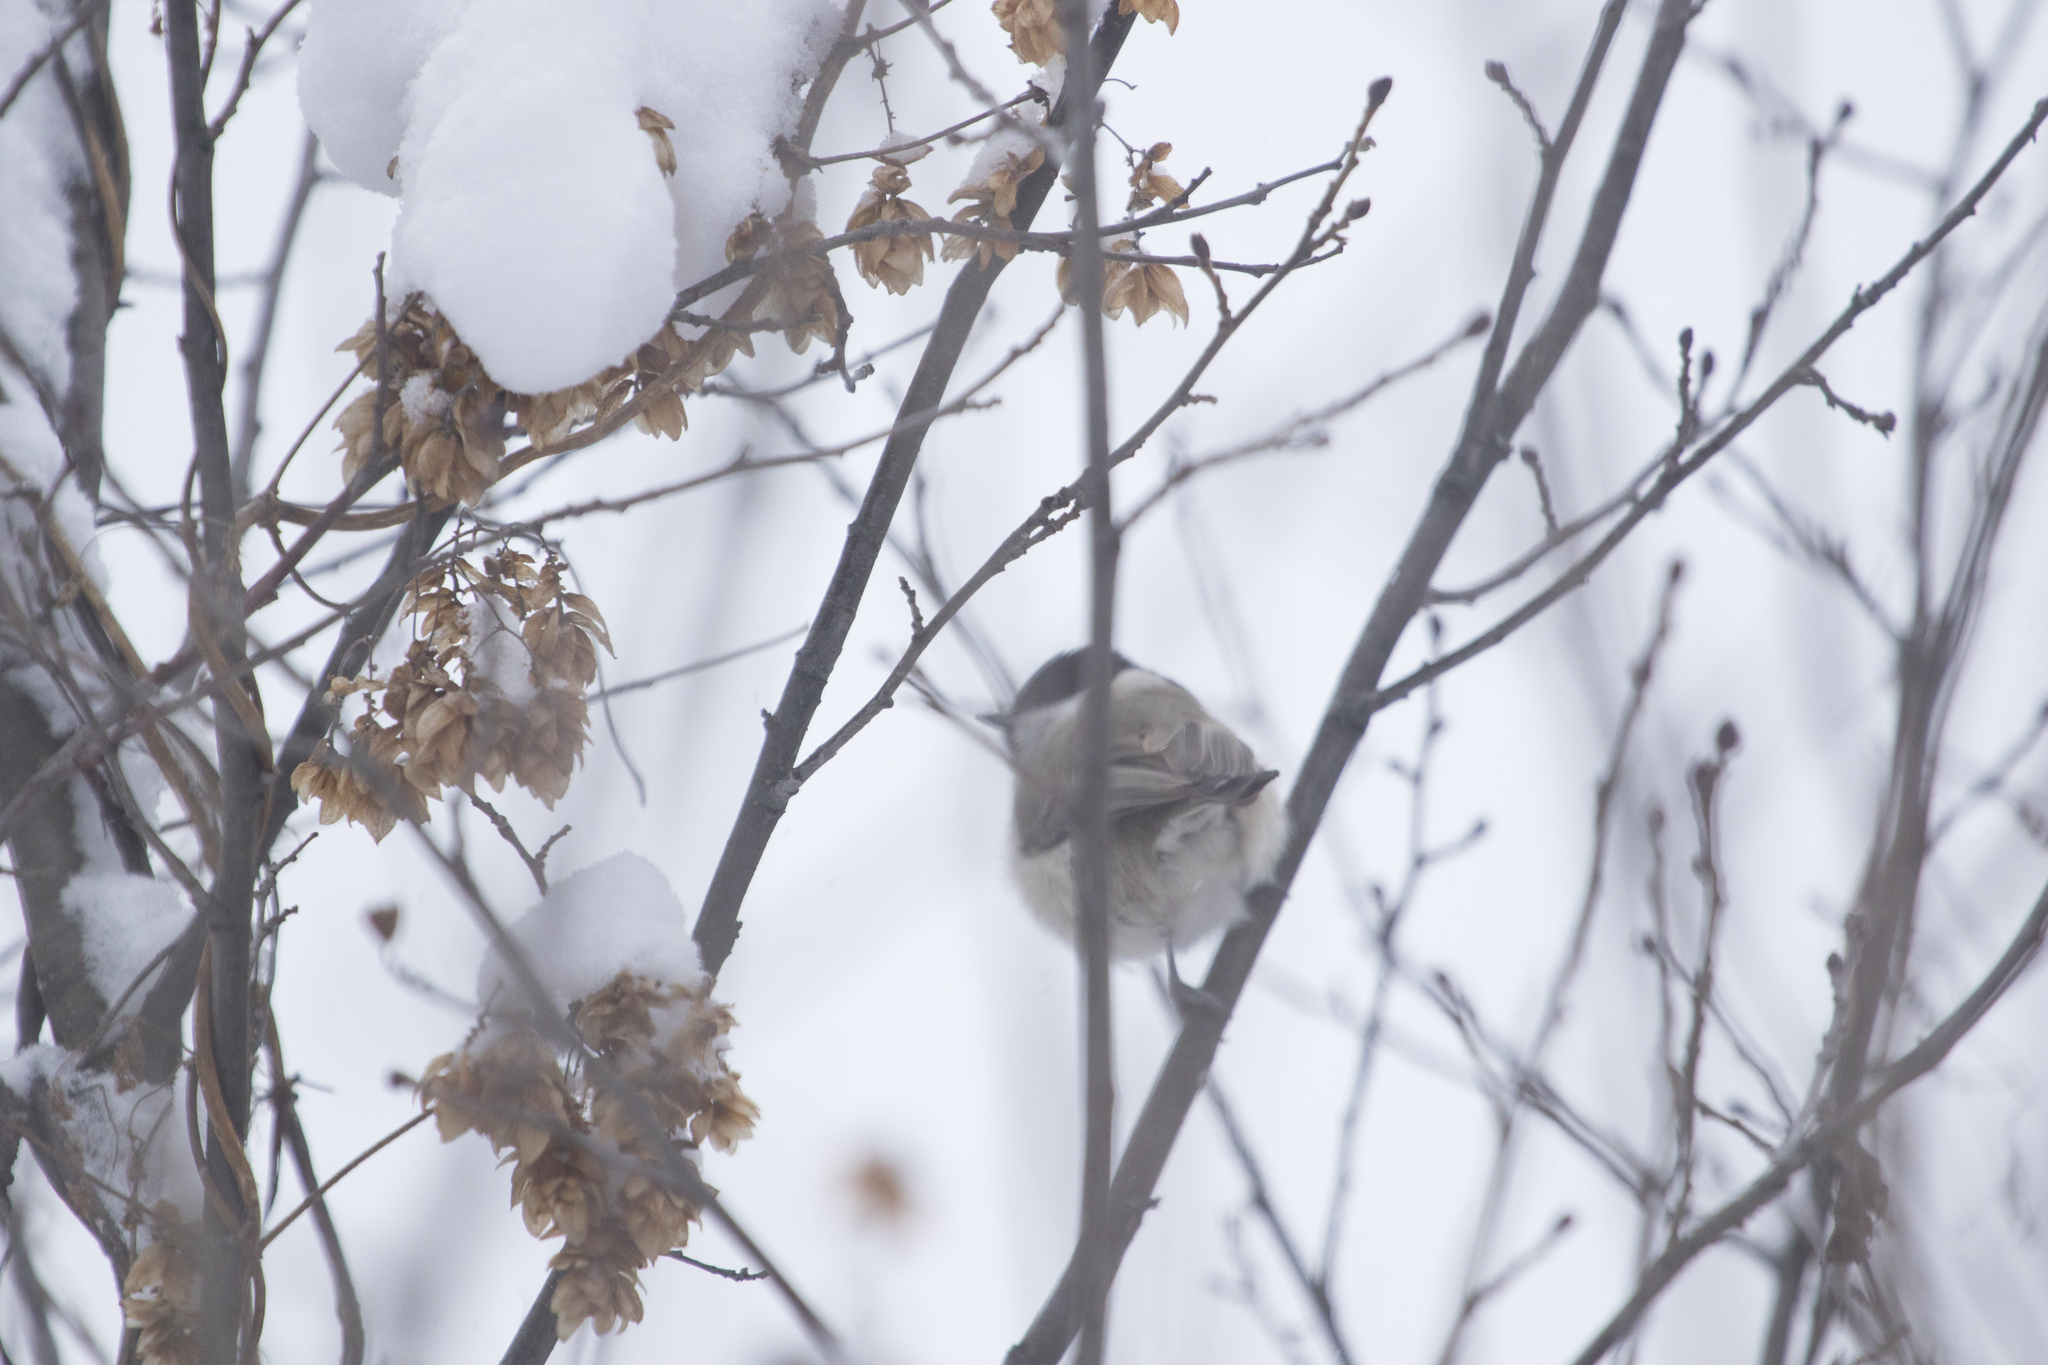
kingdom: Animalia
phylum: Chordata
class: Aves
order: Passeriformes
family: Paridae
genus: Poecile
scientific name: Poecile palustris
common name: Marsh tit
